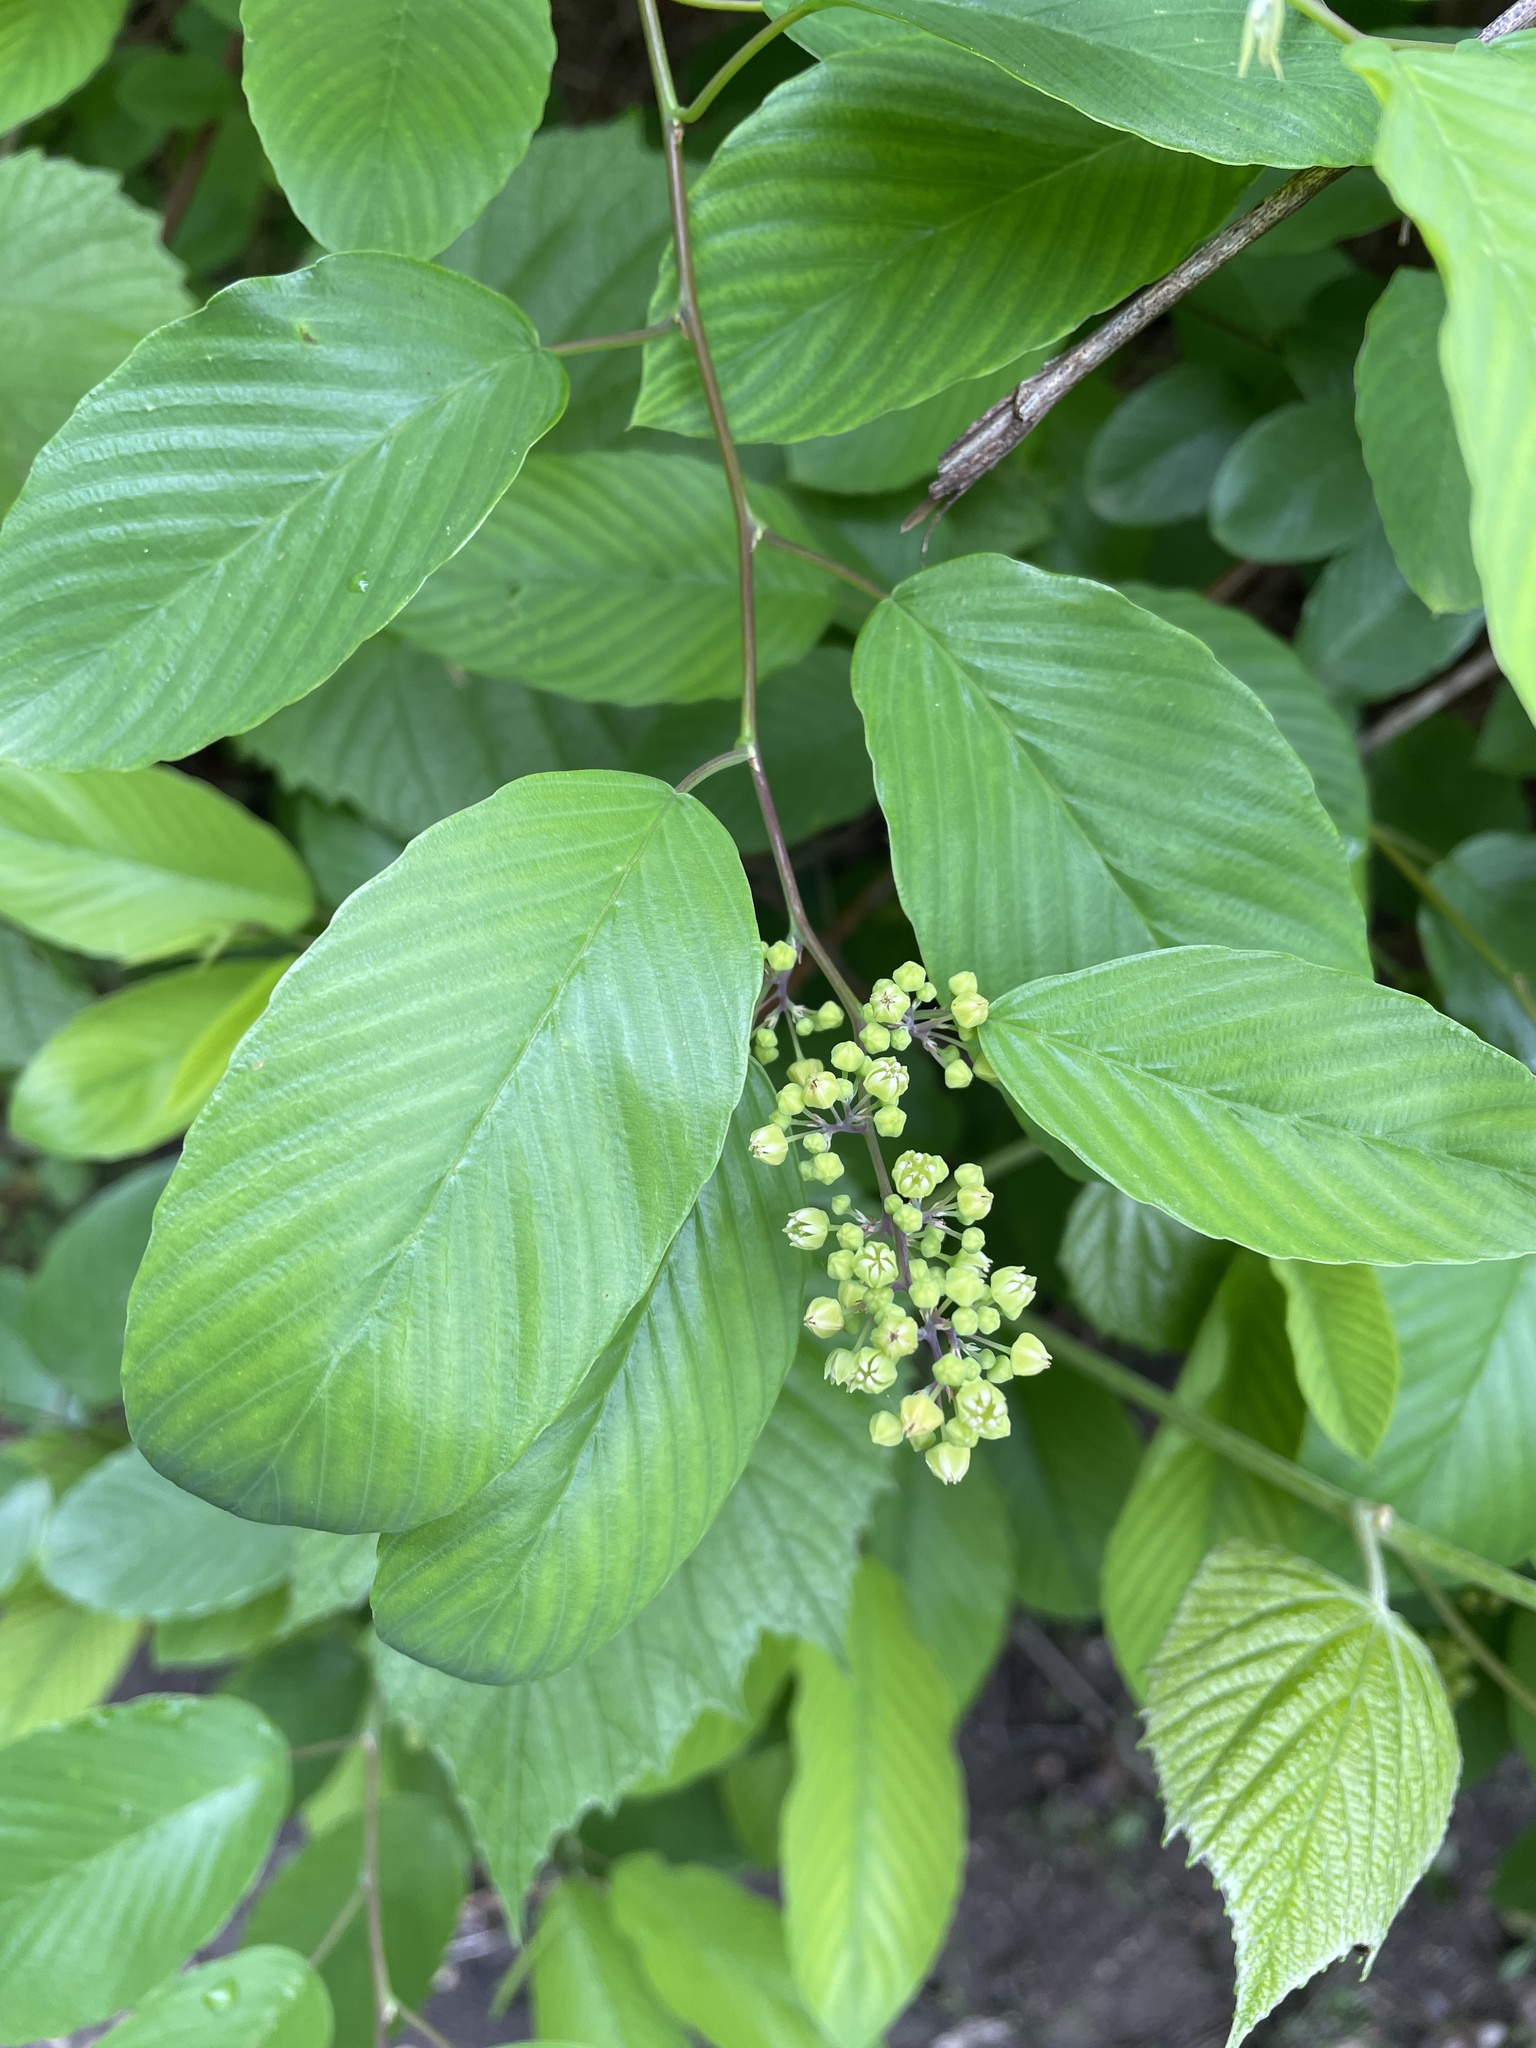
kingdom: Plantae
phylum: Tracheophyta
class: Magnoliopsida
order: Rosales
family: Rhamnaceae
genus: Berchemia
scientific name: Berchemia scandens
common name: Supplejack
